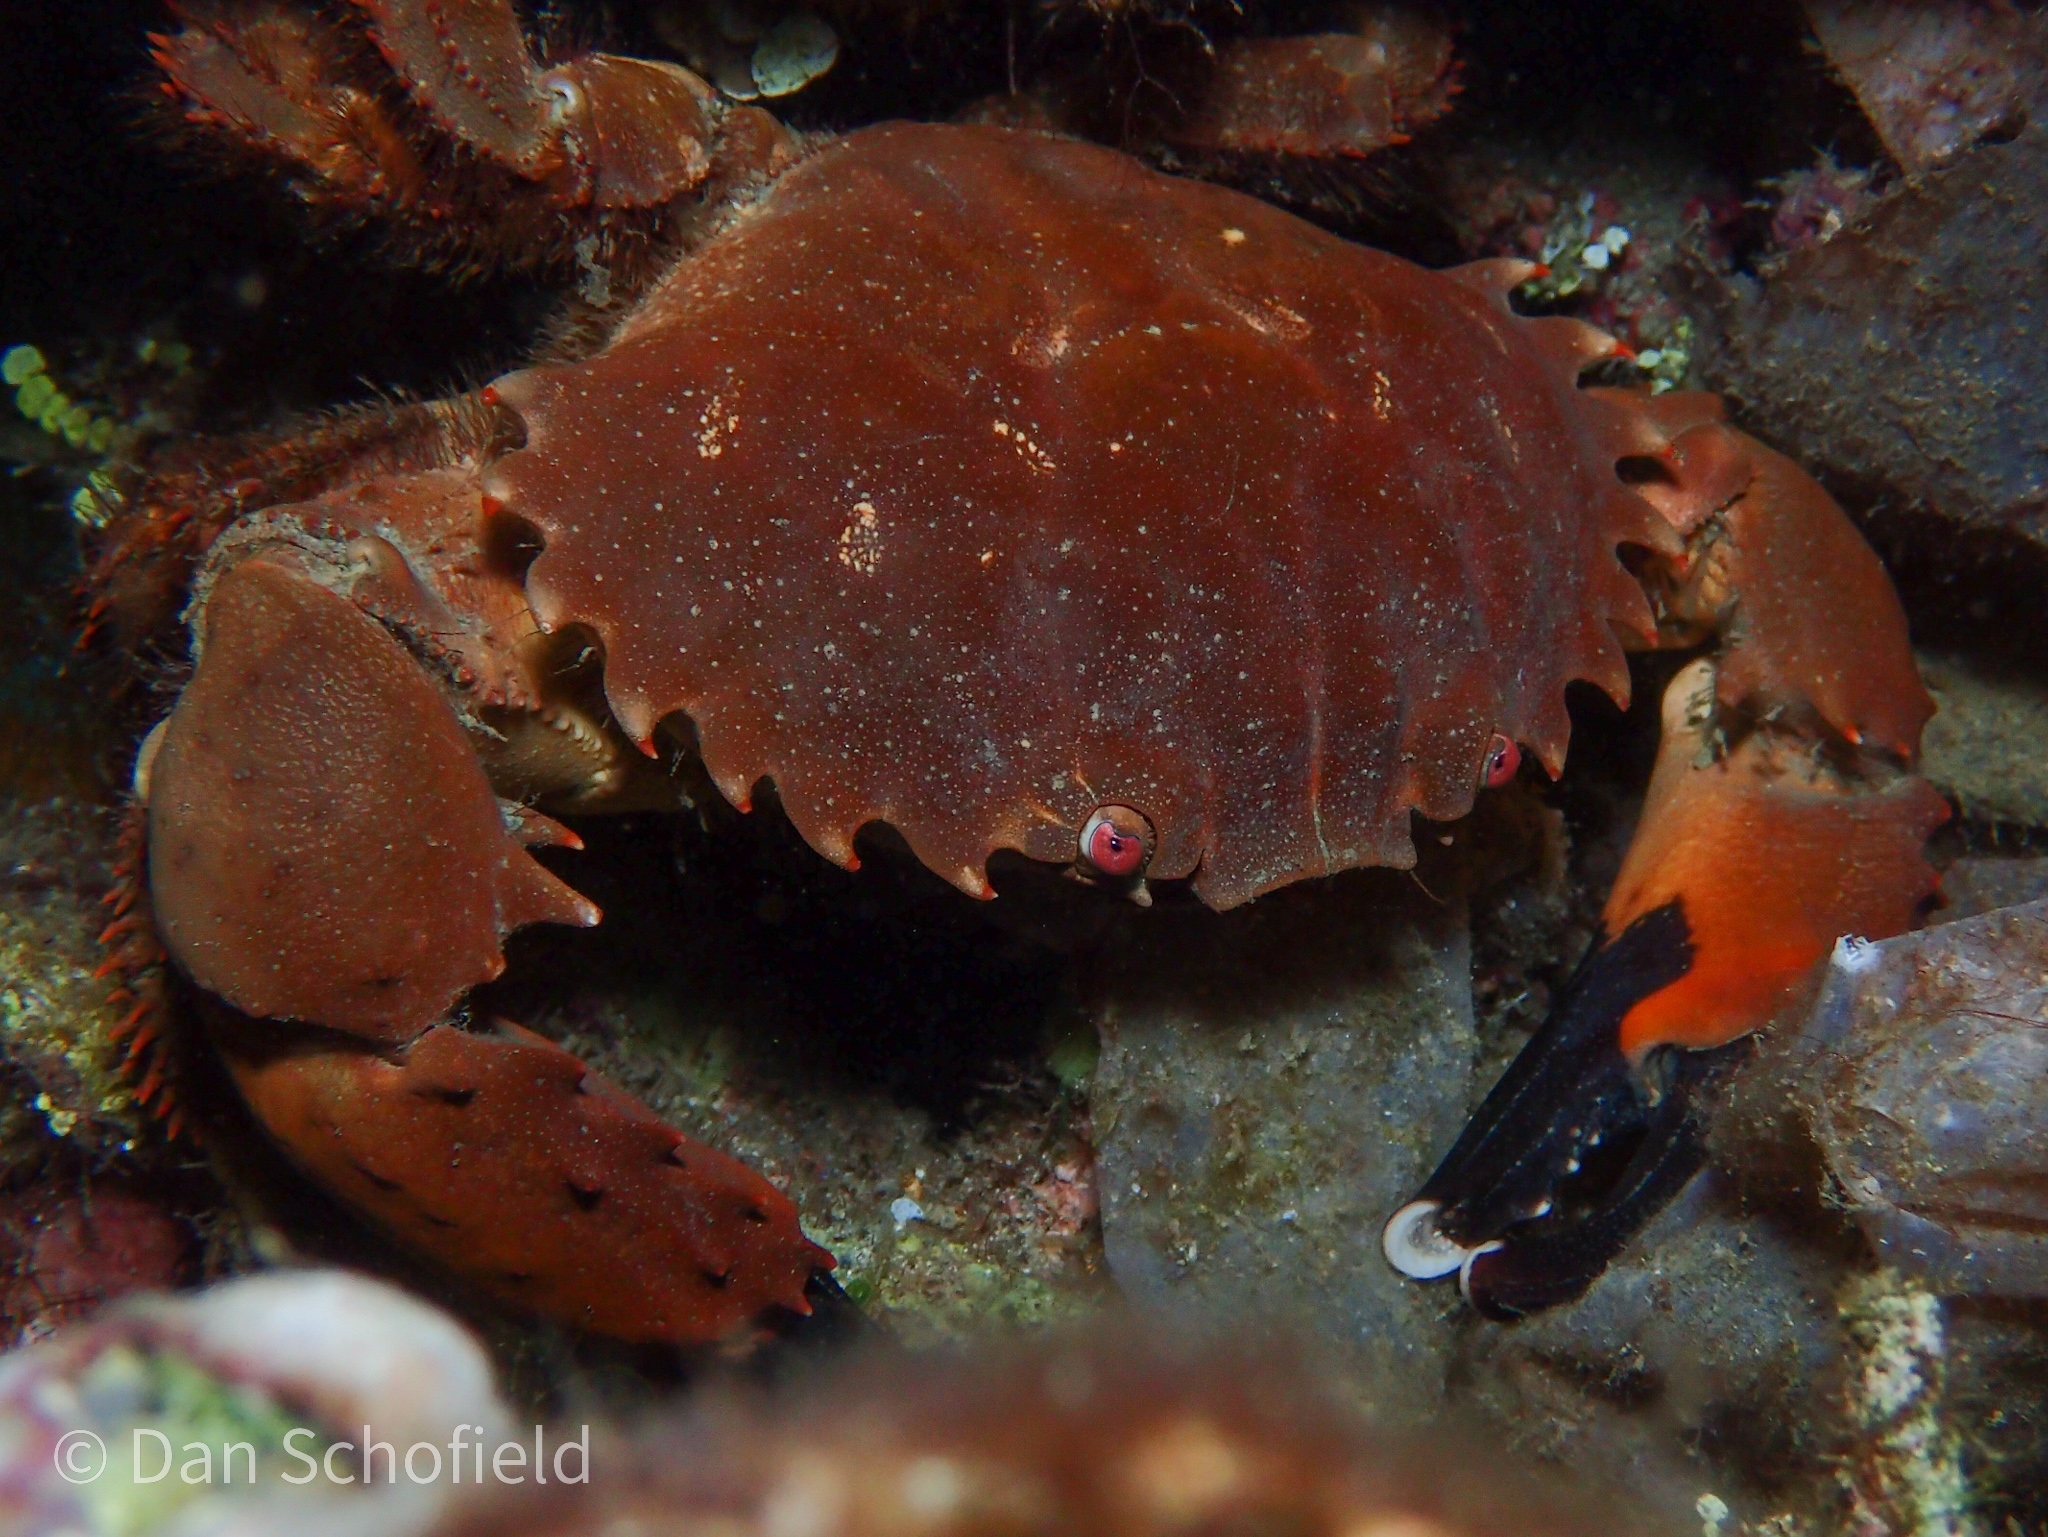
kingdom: Animalia
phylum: Arthropoda
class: Malacostraca
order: Decapoda
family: Xanthidae
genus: Etisus
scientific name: Etisus utilis
